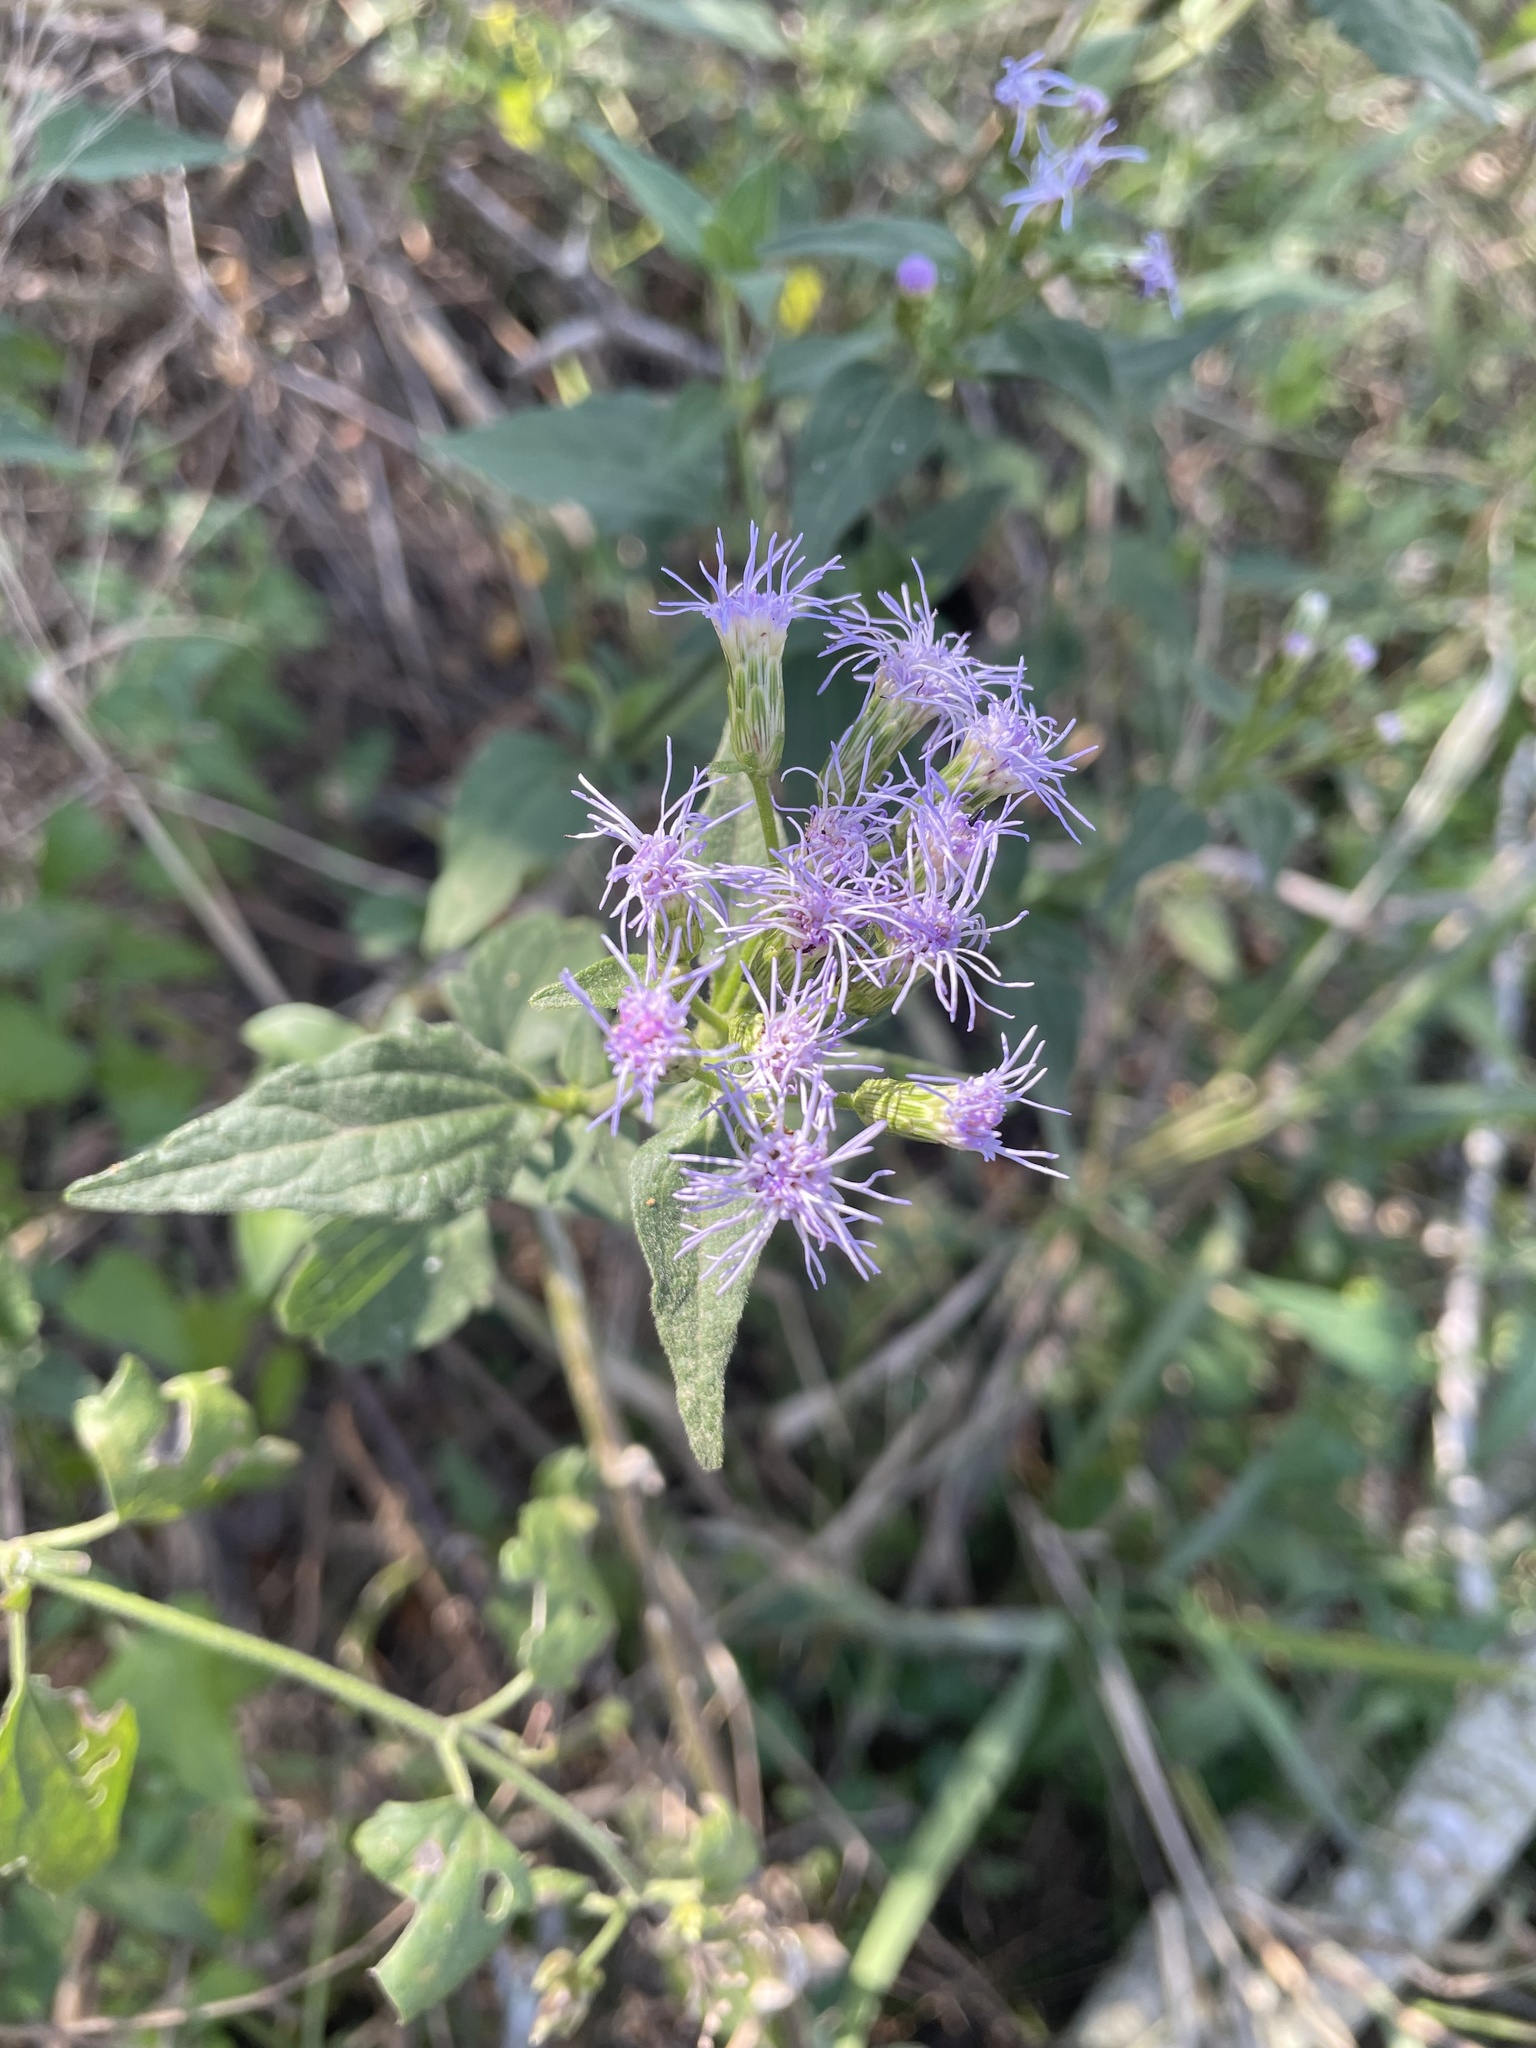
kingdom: Plantae
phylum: Tracheophyta
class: Magnoliopsida
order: Asterales
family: Asteraceae
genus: Chromolaena
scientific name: Chromolaena odorata
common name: Siamweed
